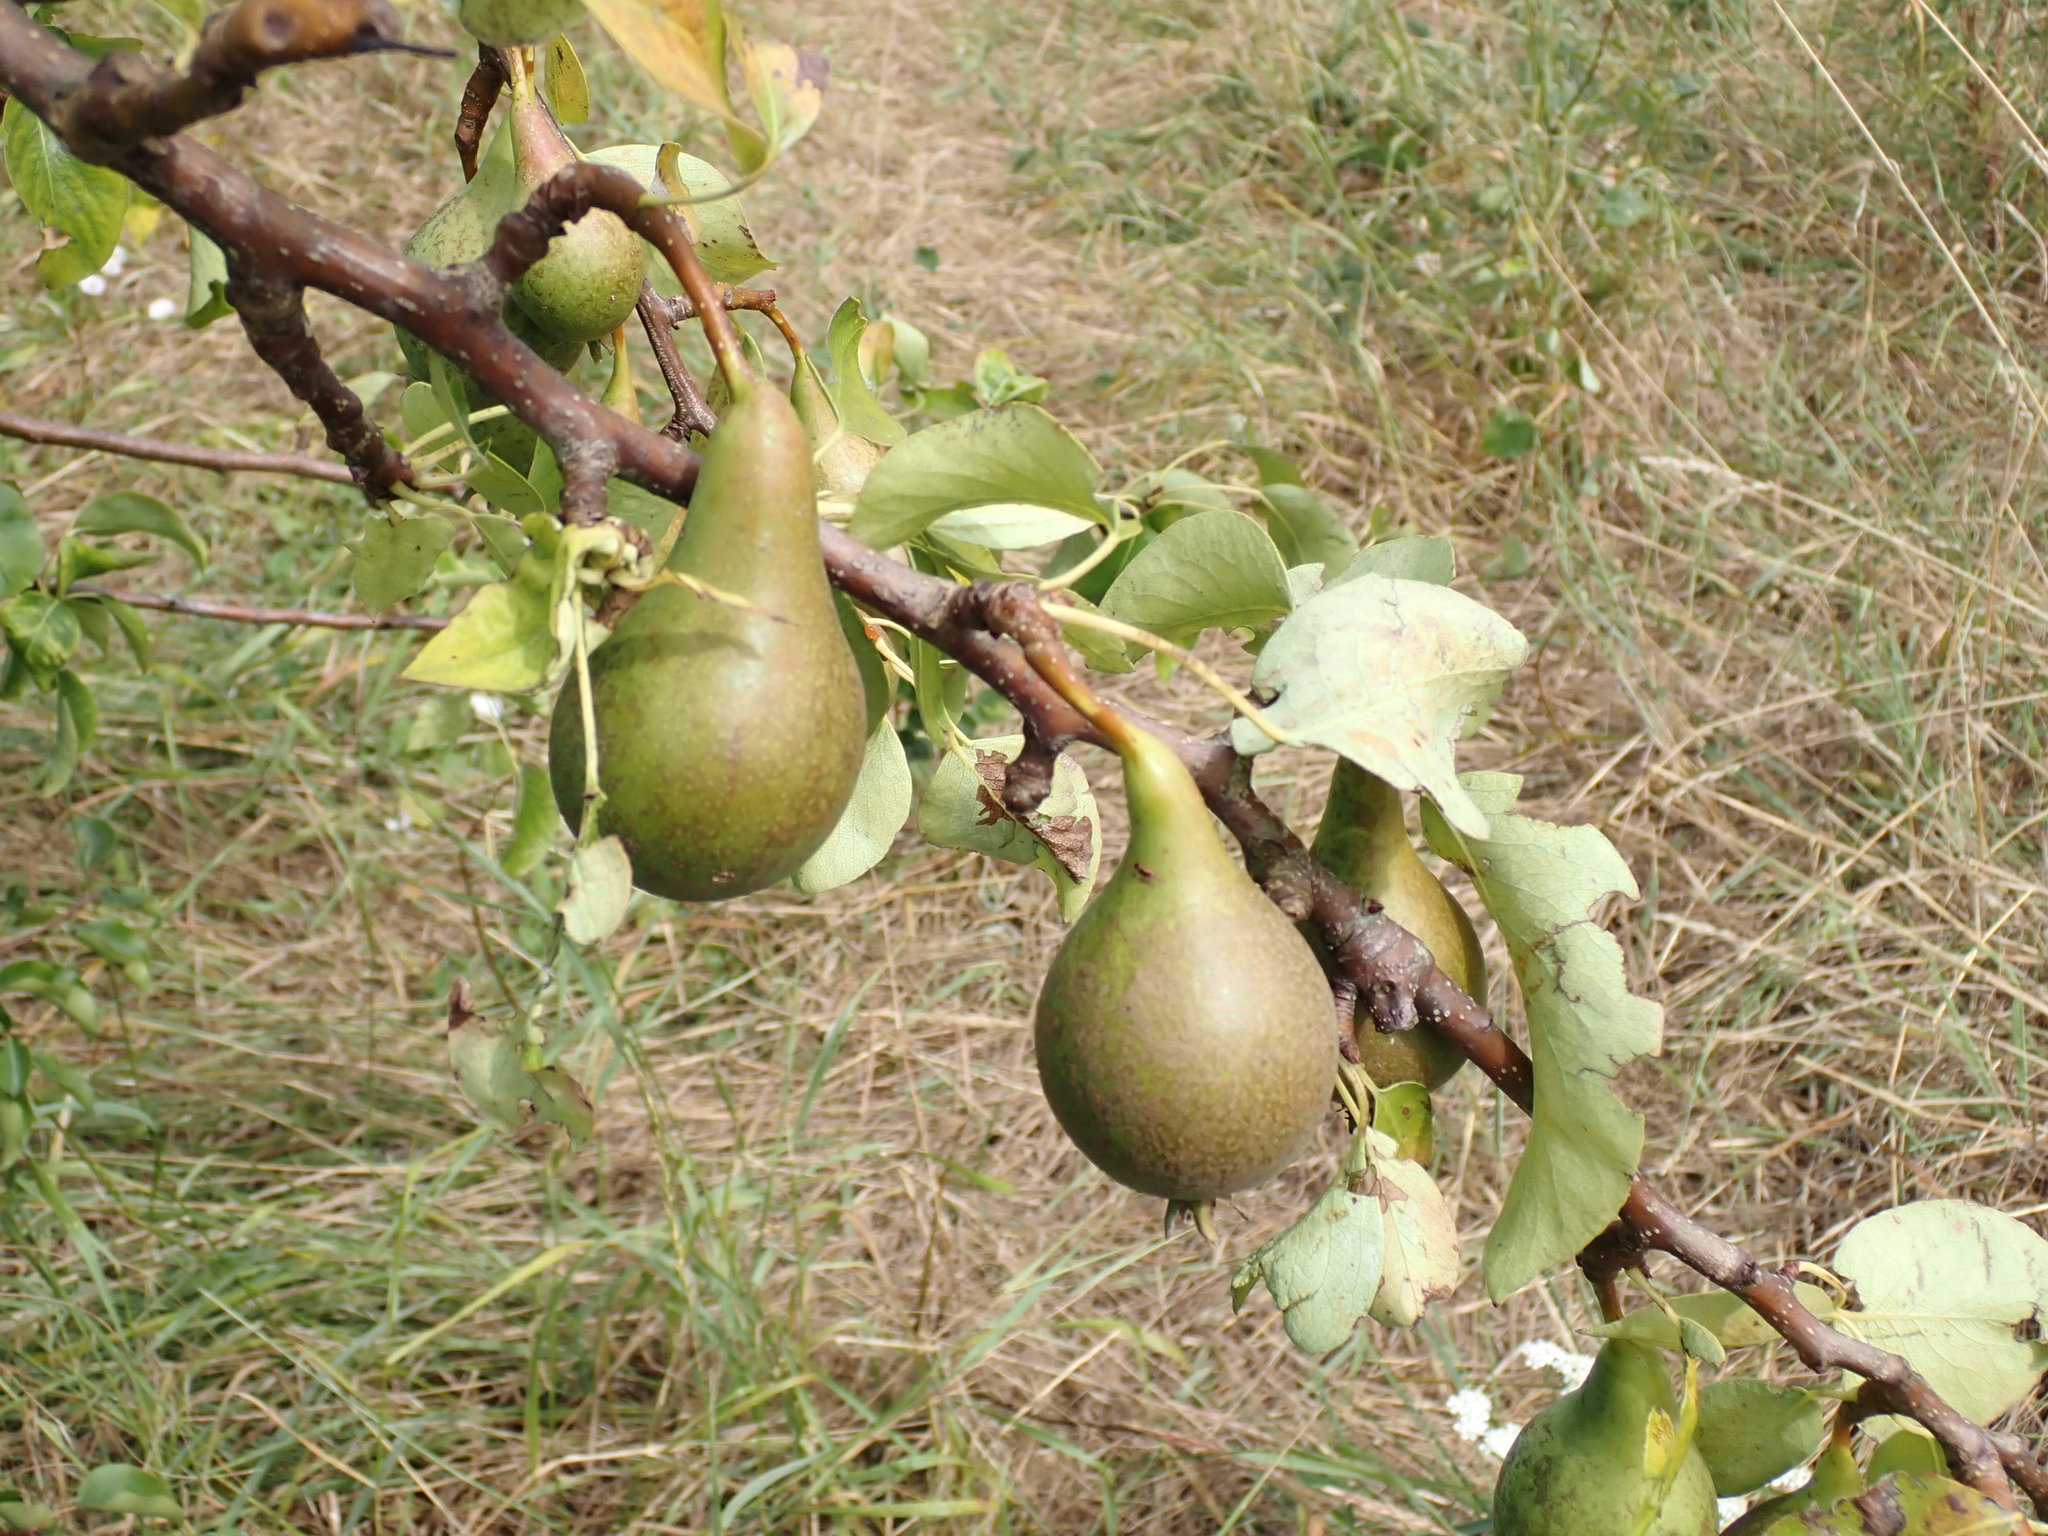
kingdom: Plantae
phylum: Tracheophyta
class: Magnoliopsida
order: Rosales
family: Rosaceae
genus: Pyrus
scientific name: Pyrus communis
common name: Pear
